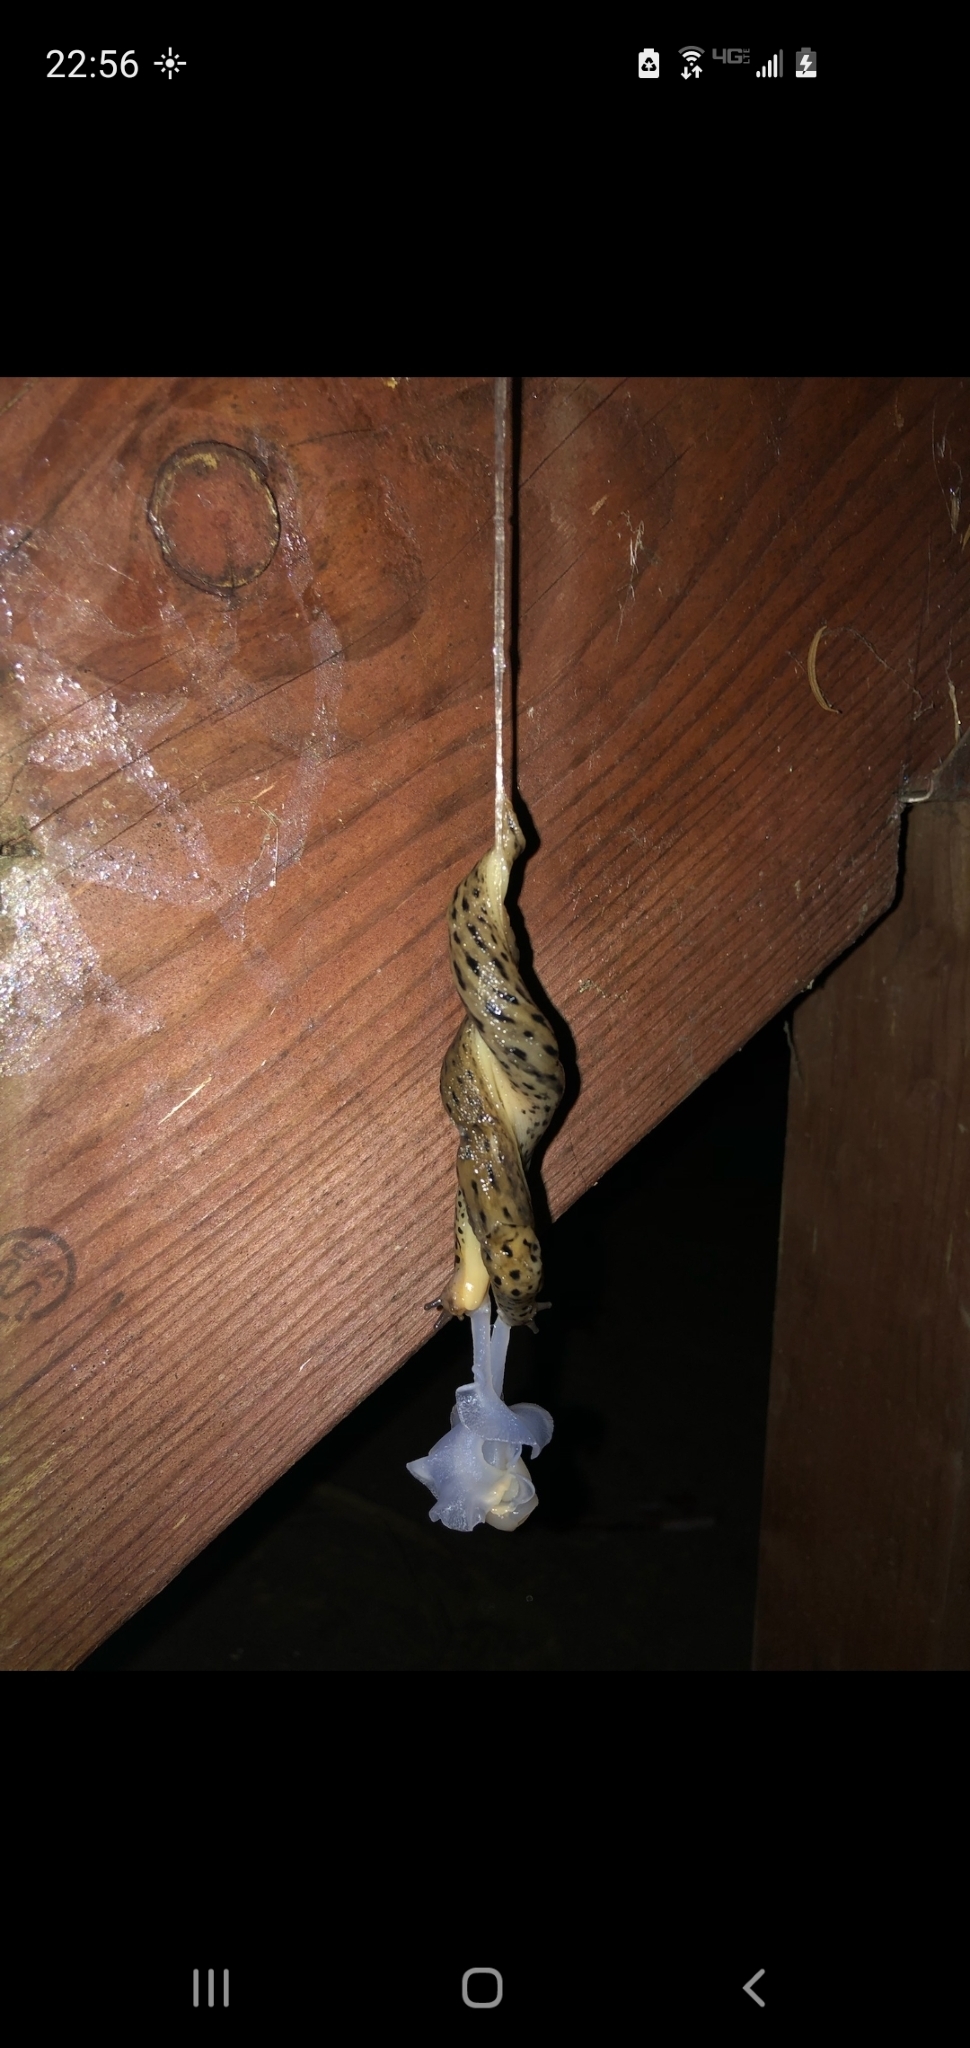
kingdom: Animalia
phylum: Mollusca
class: Gastropoda
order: Stylommatophora
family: Limacidae
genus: Limax
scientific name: Limax maximus
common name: Great grey slug
